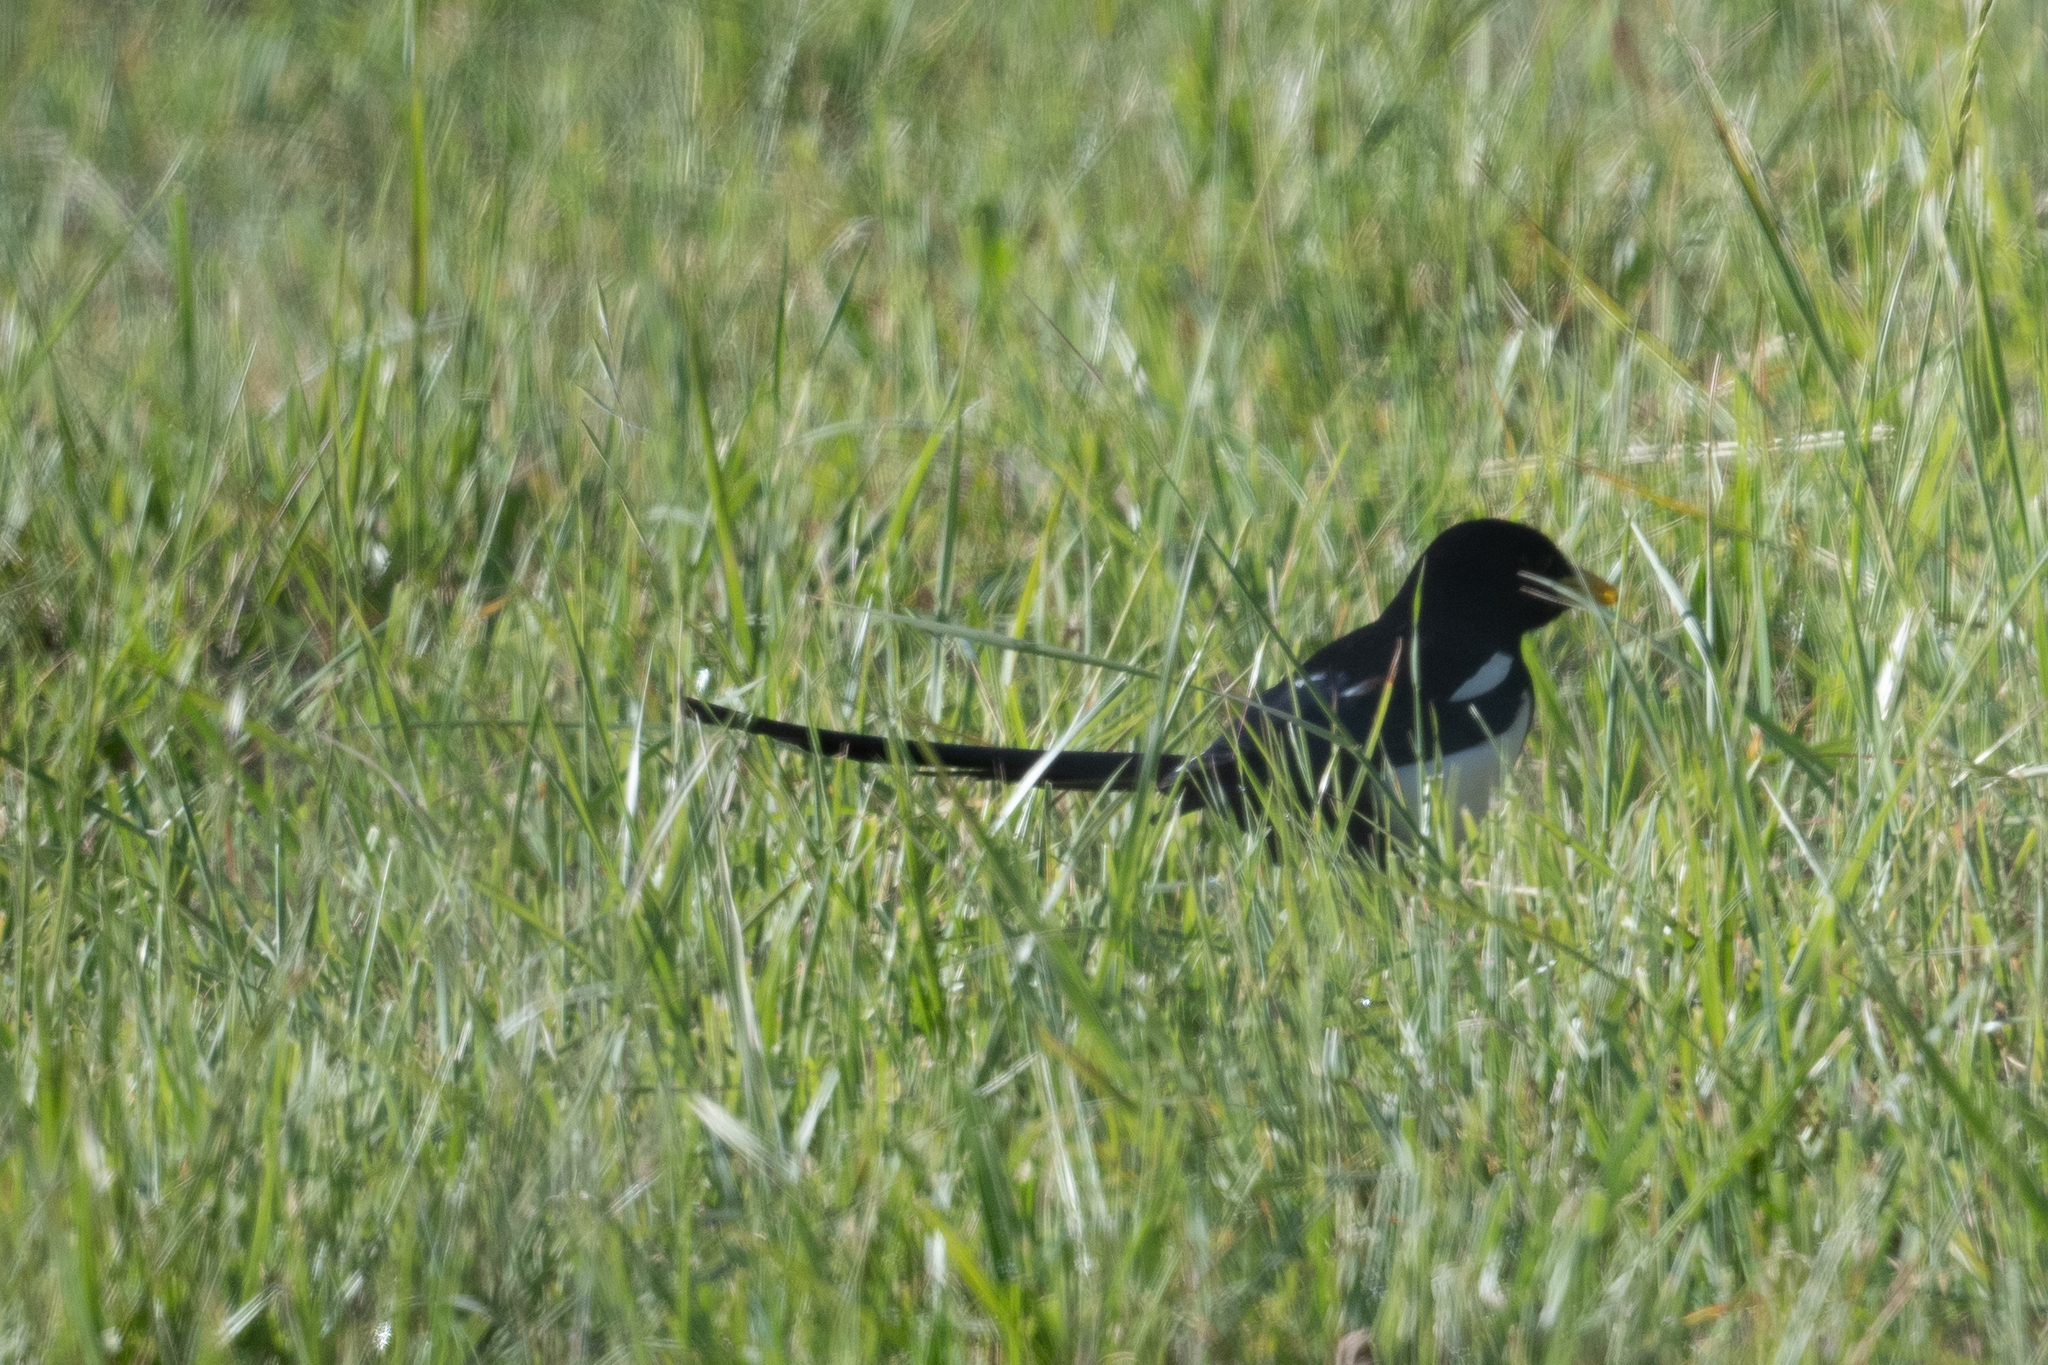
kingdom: Animalia
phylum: Chordata
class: Aves
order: Passeriformes
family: Corvidae
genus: Pica
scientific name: Pica nuttalli
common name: Yellow-billed magpie
